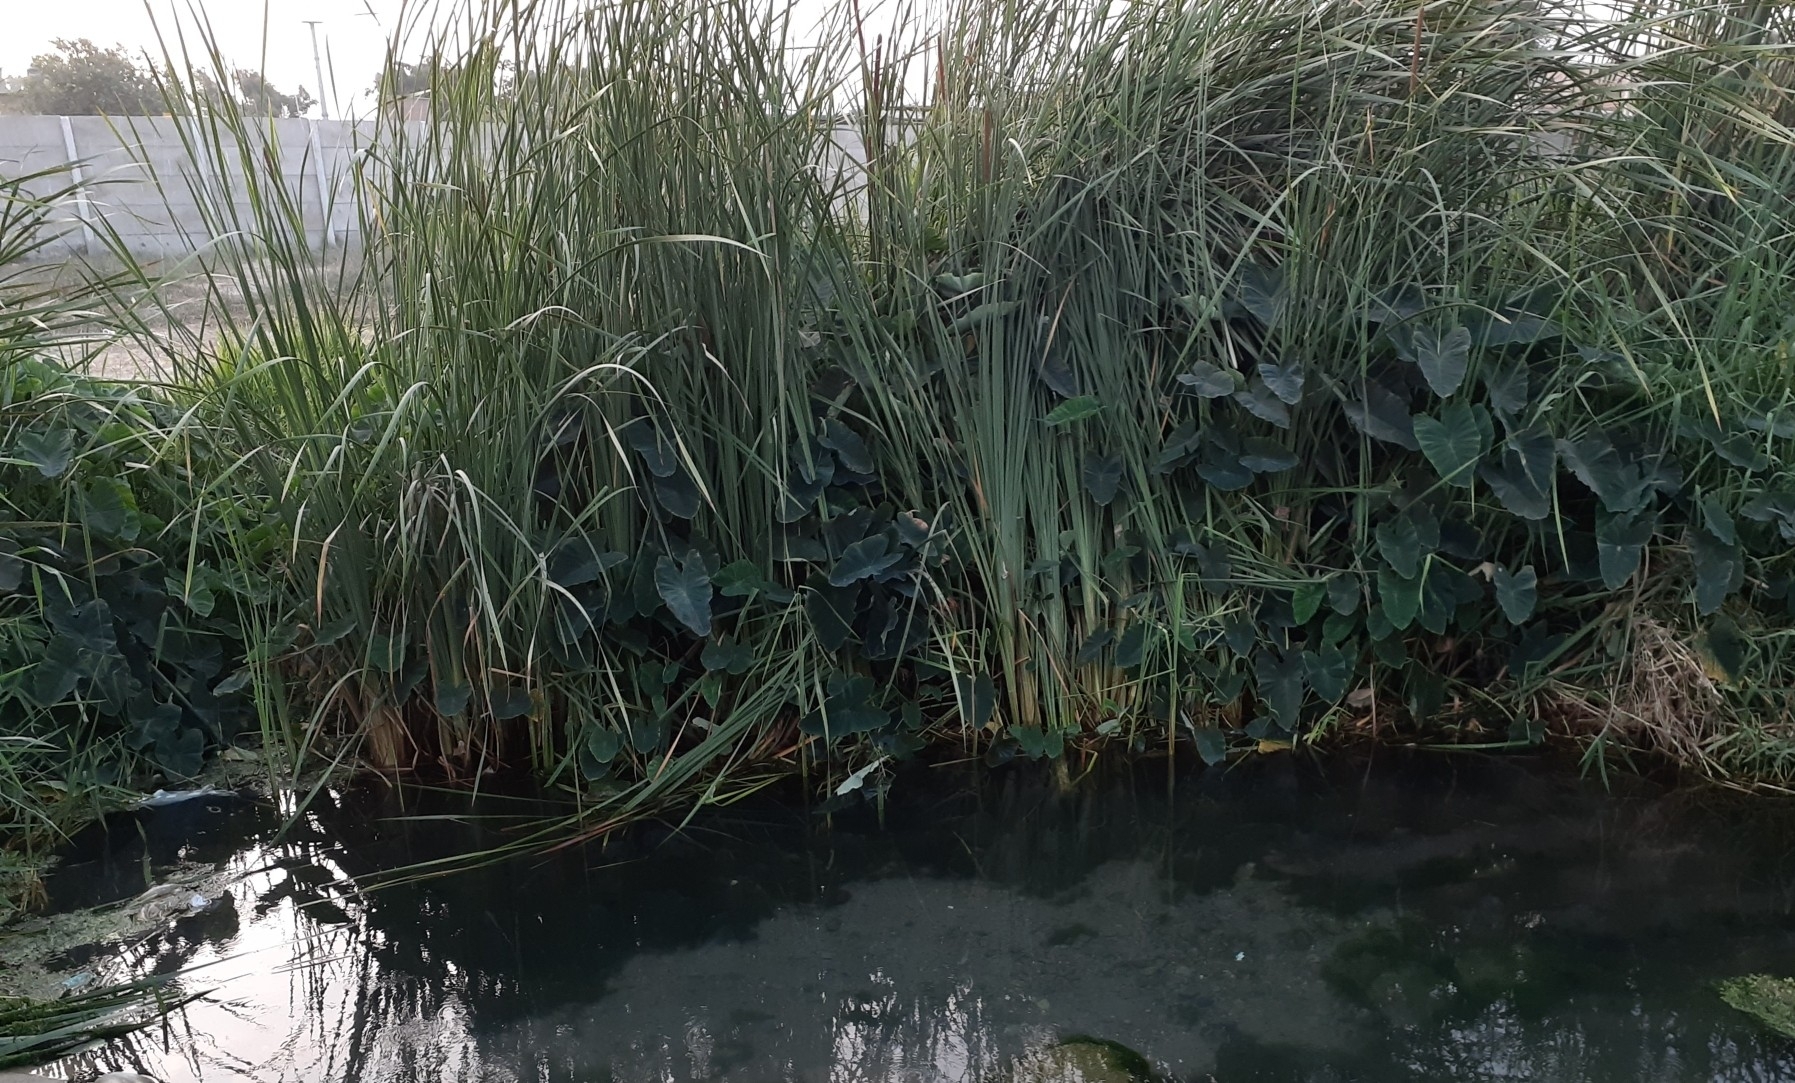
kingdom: Plantae
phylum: Tracheophyta
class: Liliopsida
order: Poales
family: Typhaceae
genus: Typha
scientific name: Typha domingensis
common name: Southern cattail
